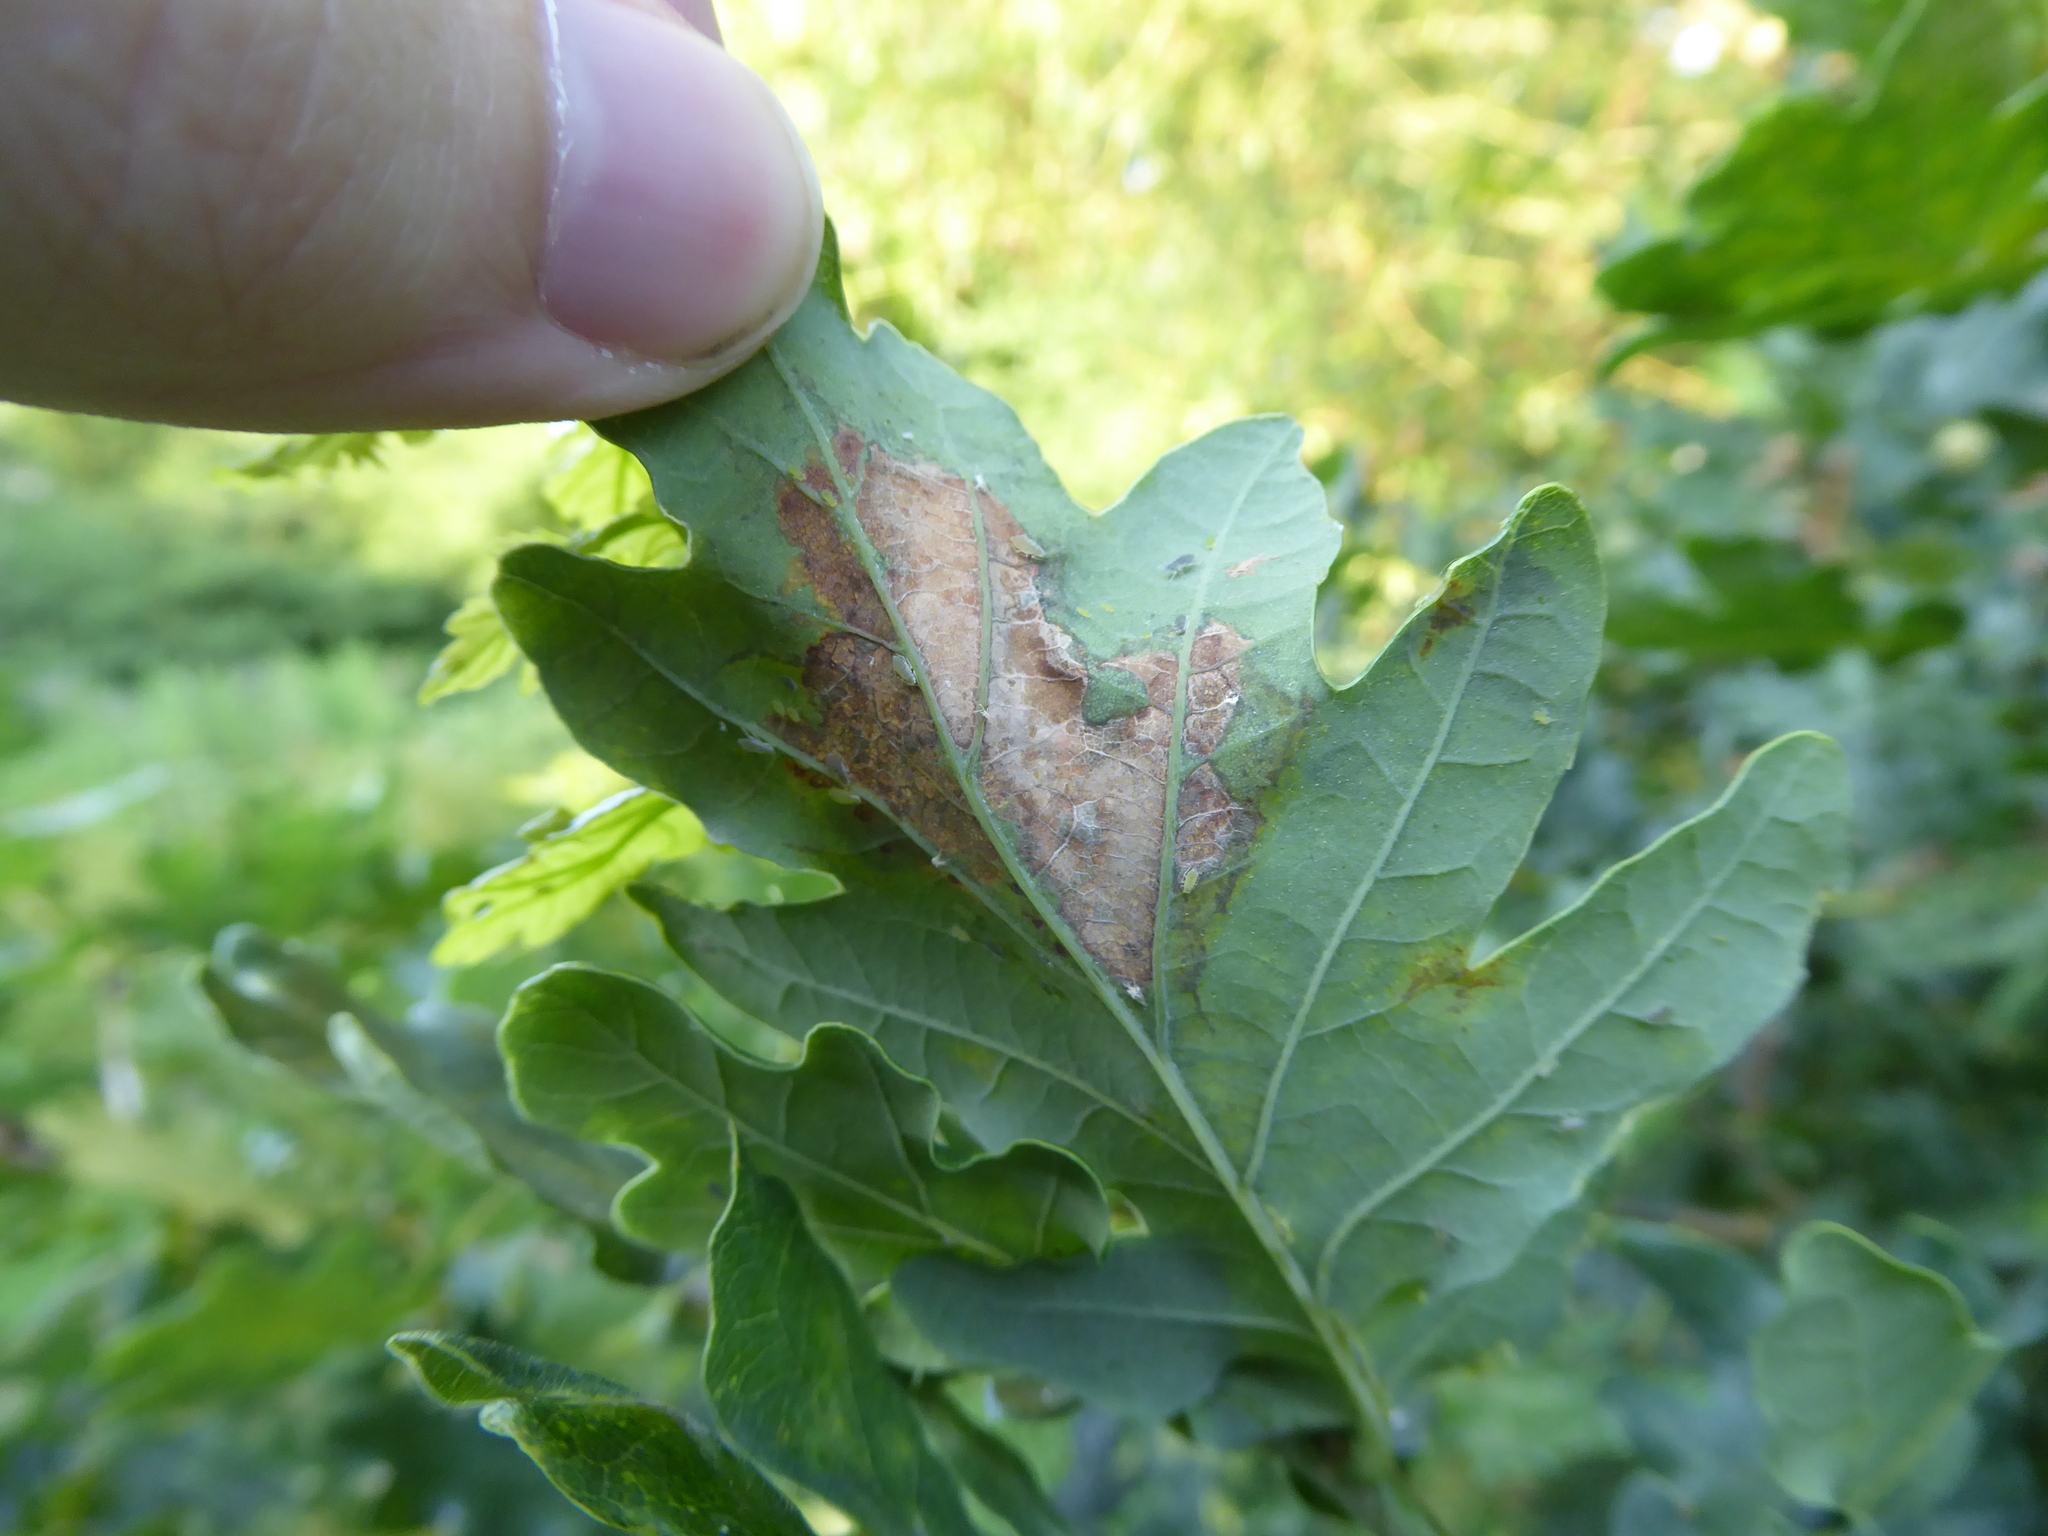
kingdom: Animalia
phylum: Arthropoda
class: Insecta
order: Lepidoptera
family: Gracillariidae
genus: Acrocercops
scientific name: Acrocercops brongniardella
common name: Brown oak slender
